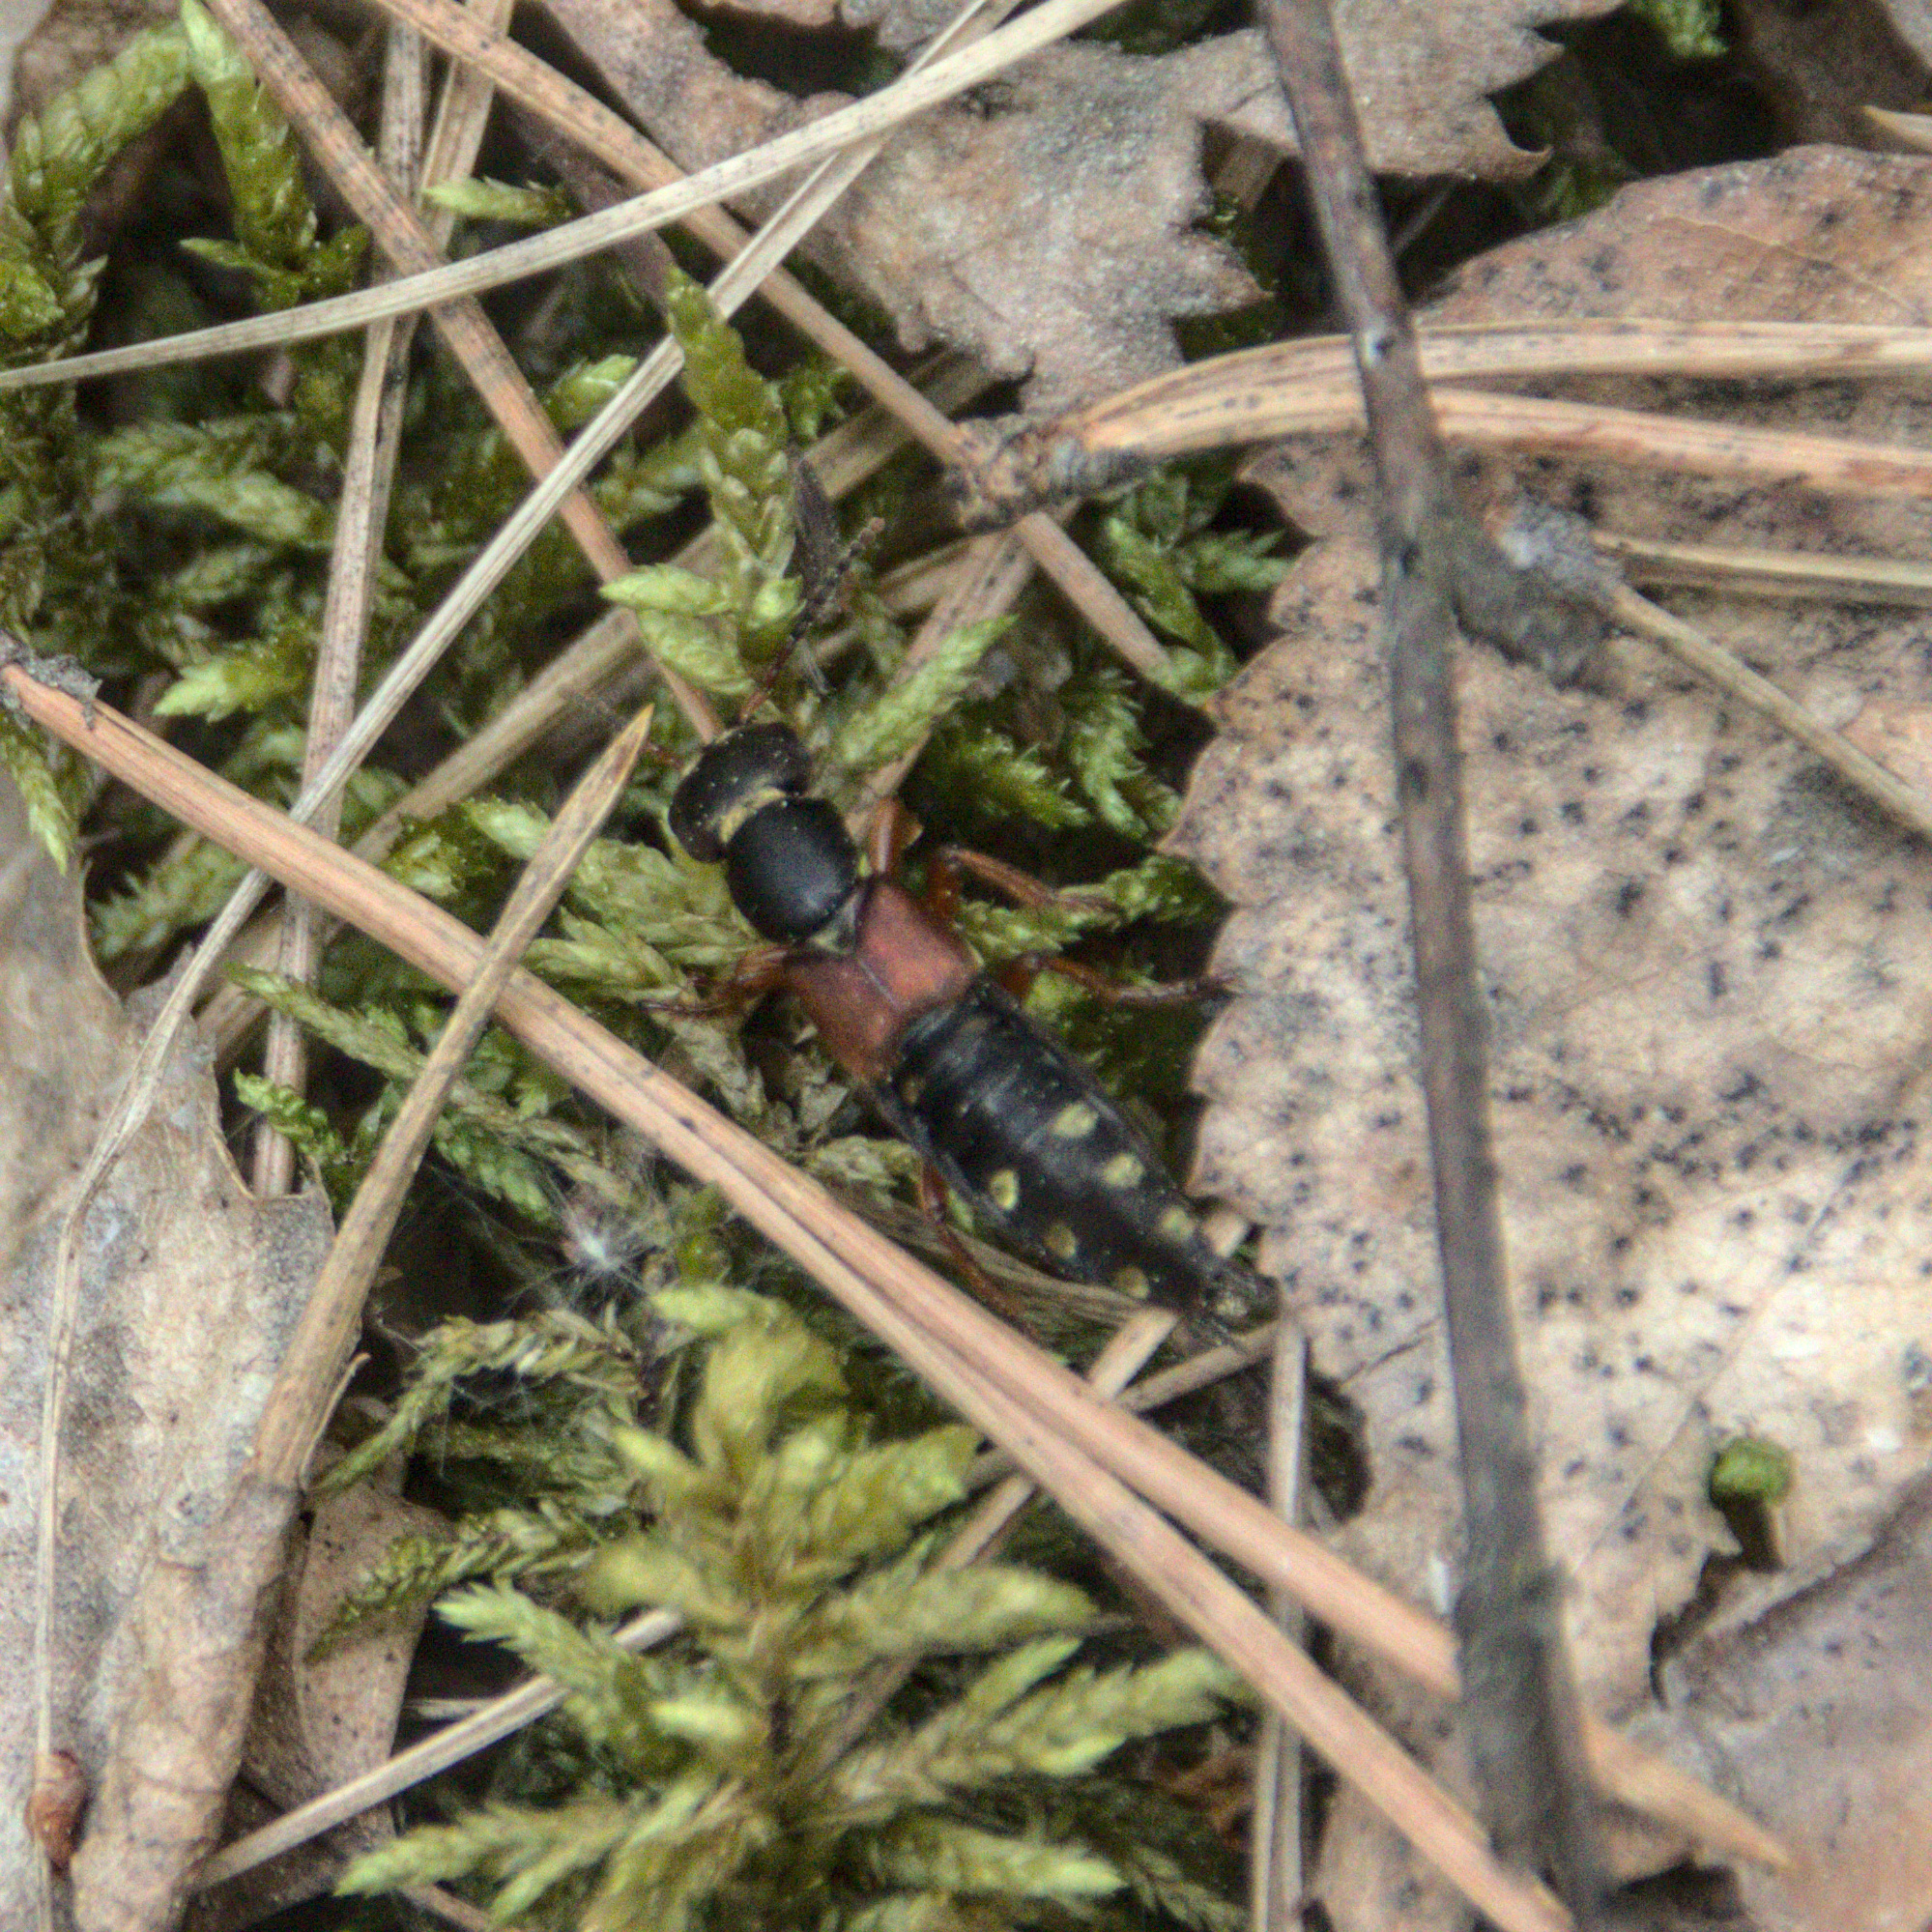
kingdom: Animalia
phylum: Arthropoda
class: Insecta
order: Coleoptera
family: Staphylinidae
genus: Staphylinus
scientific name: Staphylinus erythropterus
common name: Staph beetle
